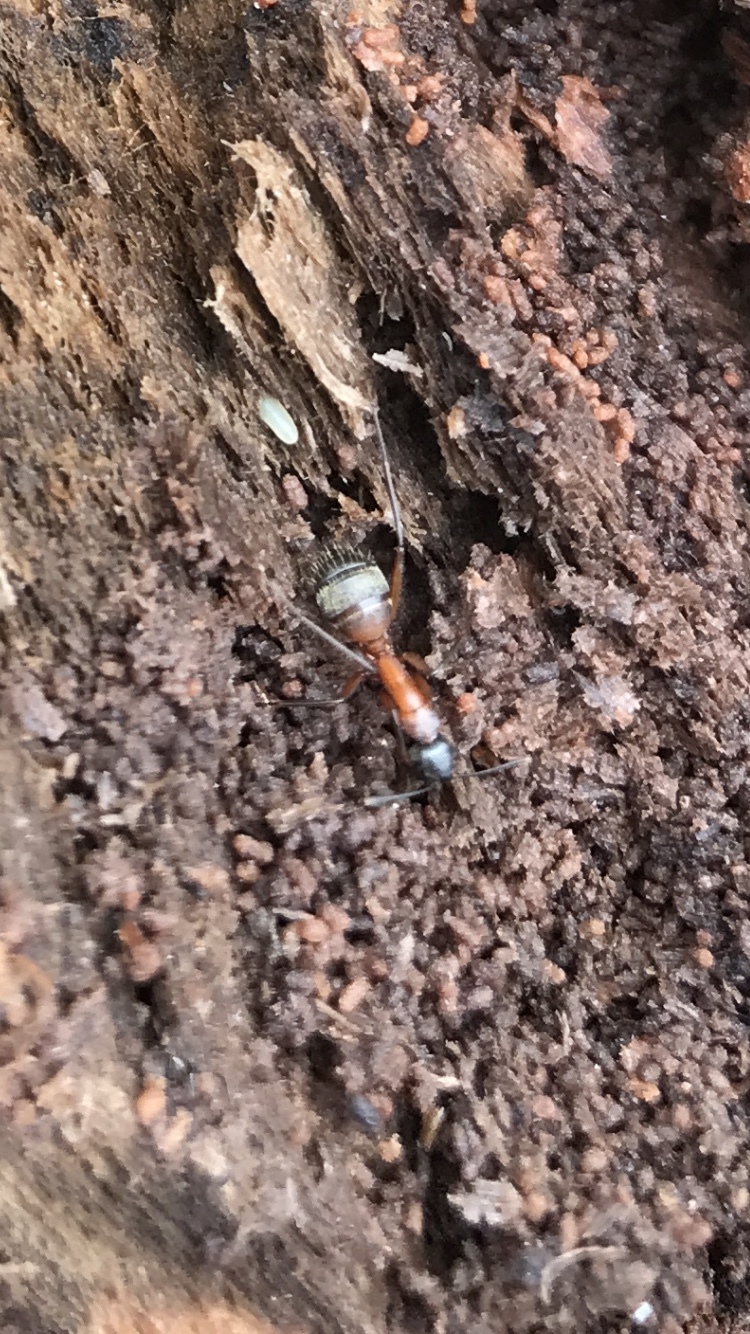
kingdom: Animalia
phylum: Arthropoda
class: Insecta
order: Hymenoptera
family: Formicidae
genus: Camponotus
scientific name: Camponotus chromaiodes
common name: Red carpenter ant
